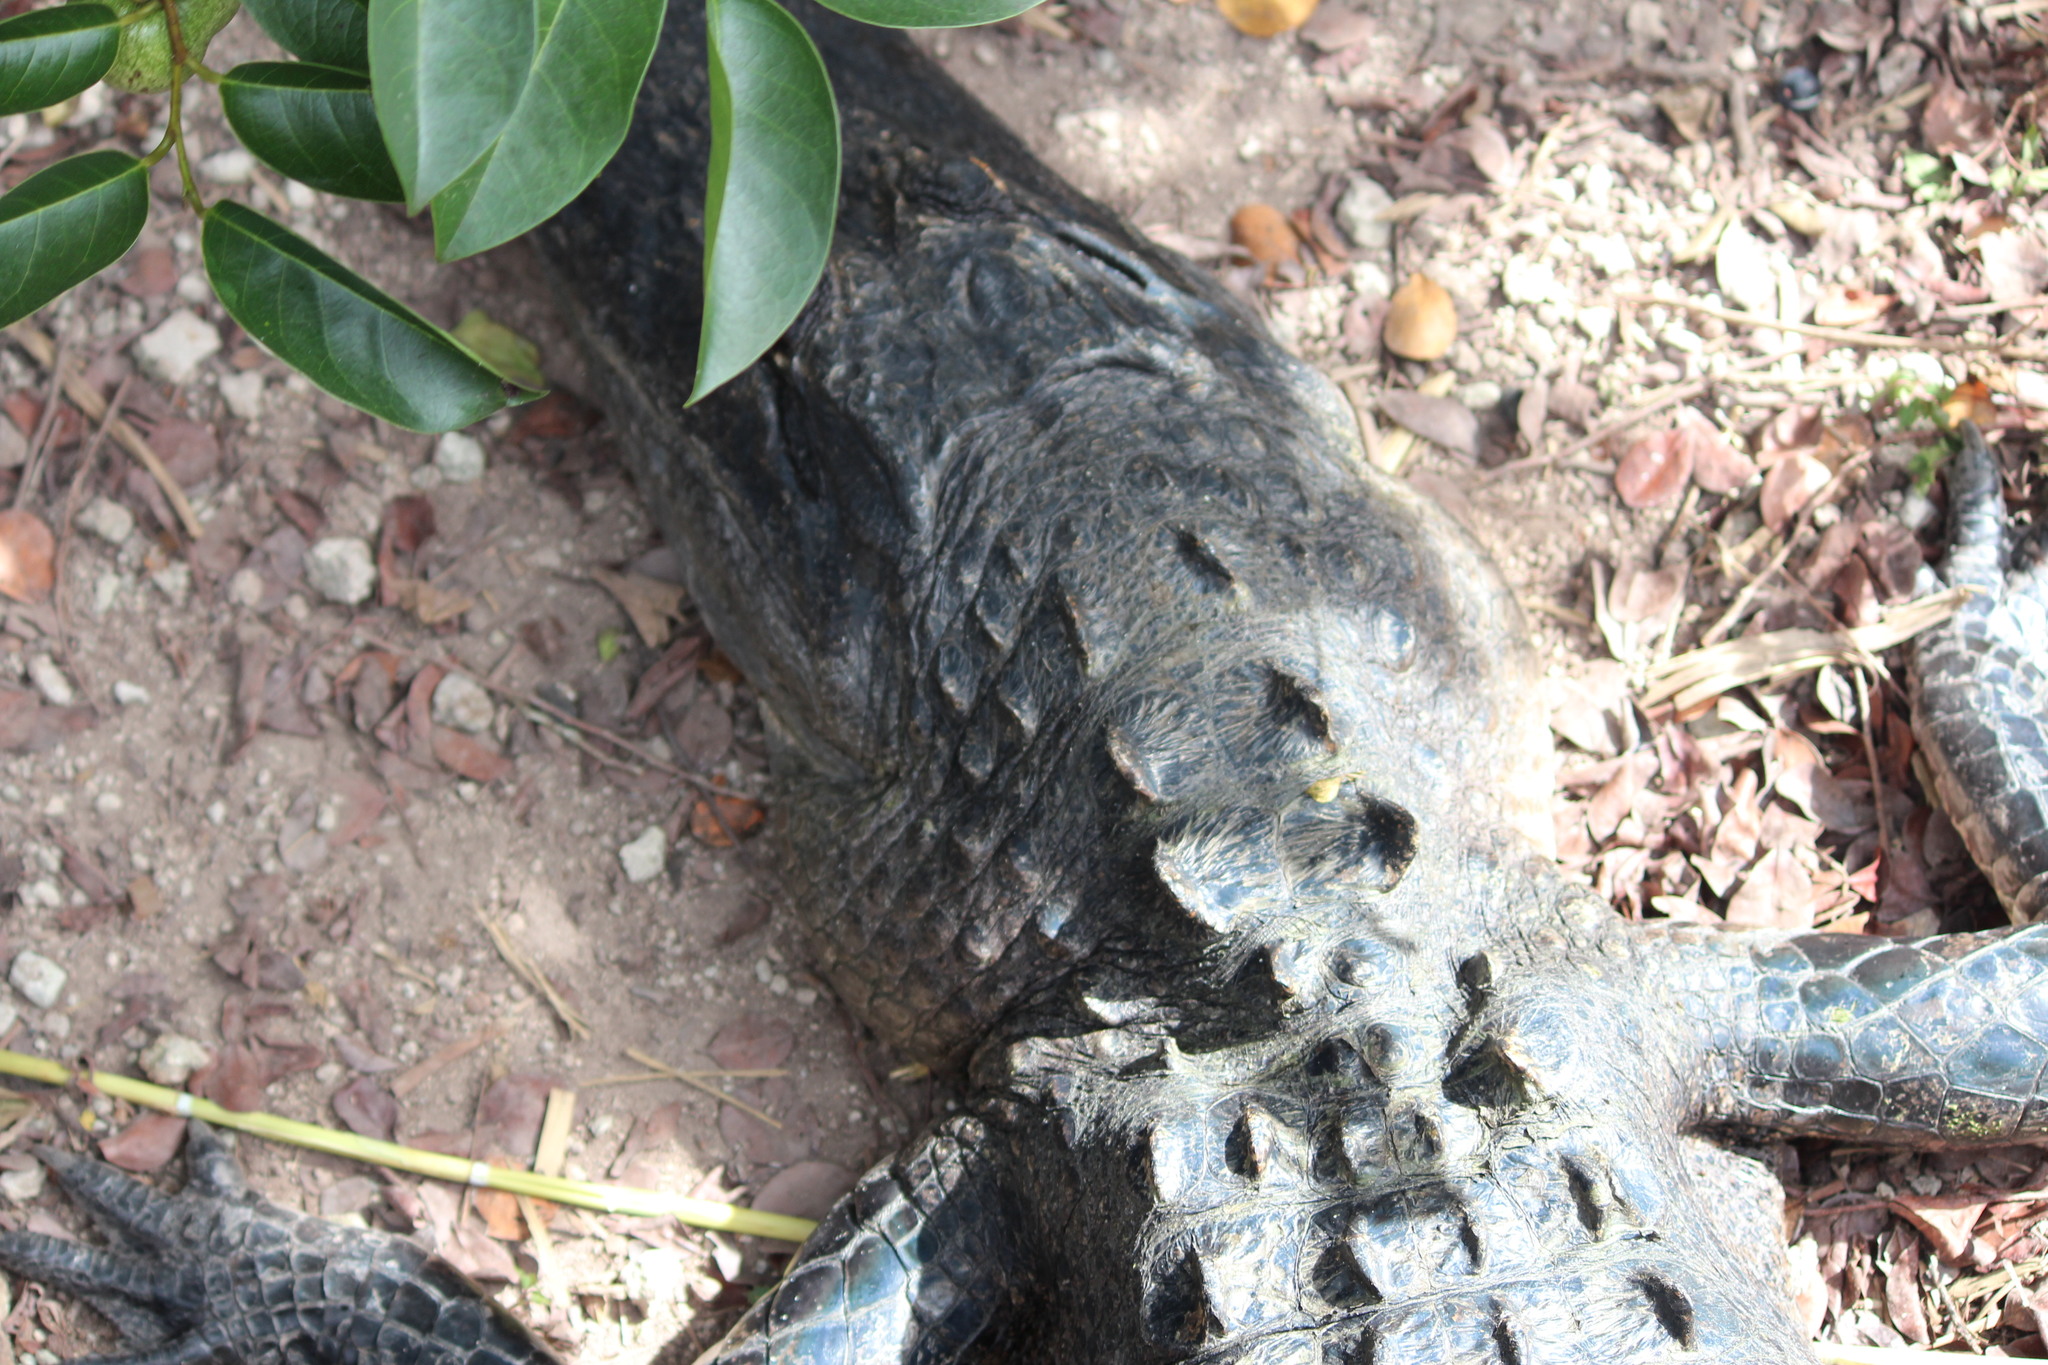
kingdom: Animalia
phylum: Chordata
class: Crocodylia
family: Alligatoridae
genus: Alligator
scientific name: Alligator mississippiensis
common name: American alligator
